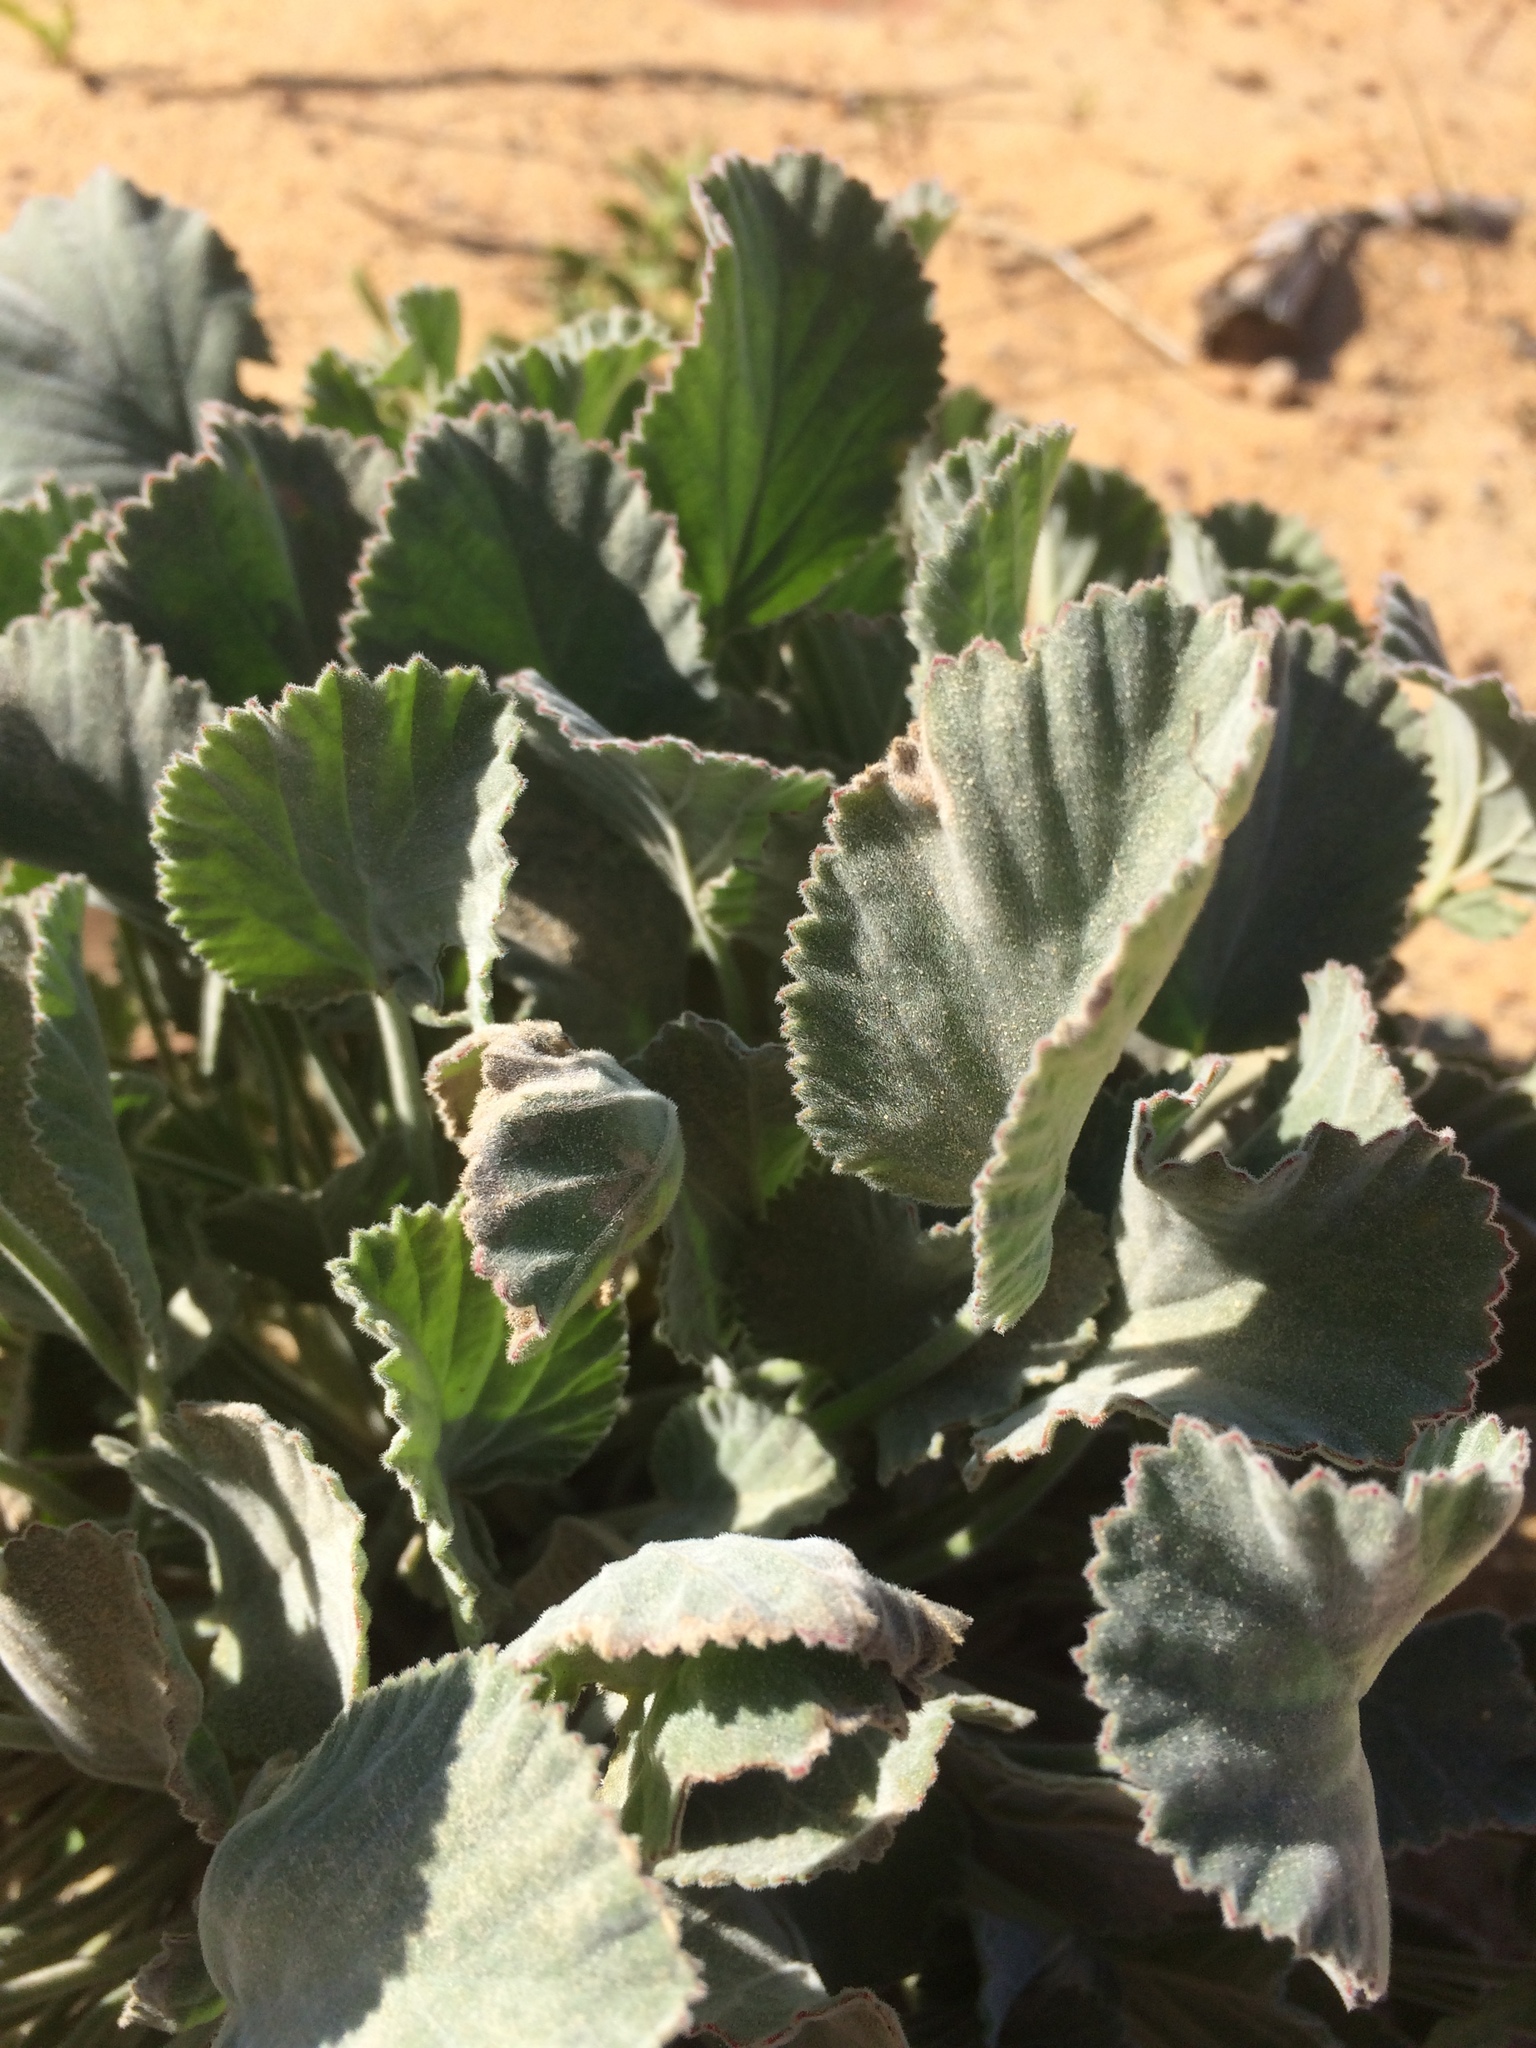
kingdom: Plantae
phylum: Tracheophyta
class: Magnoliopsida
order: Geraniales
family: Geraniaceae
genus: Pelargonium
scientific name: Pelargonium ovale
